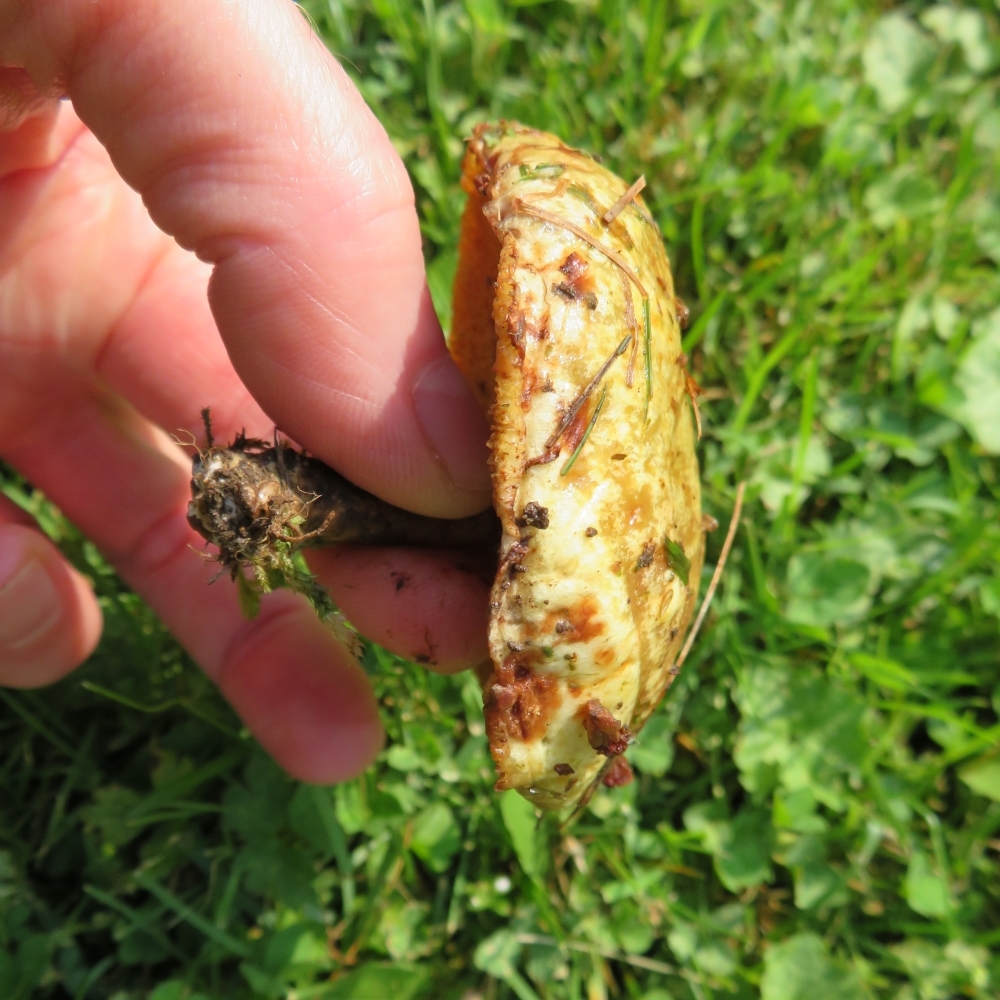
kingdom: Fungi
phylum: Basidiomycota
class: Agaricomycetes
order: Boletales
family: Suillaceae
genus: Suillus
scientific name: Suillus americanus
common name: Chicken fat mushroom
